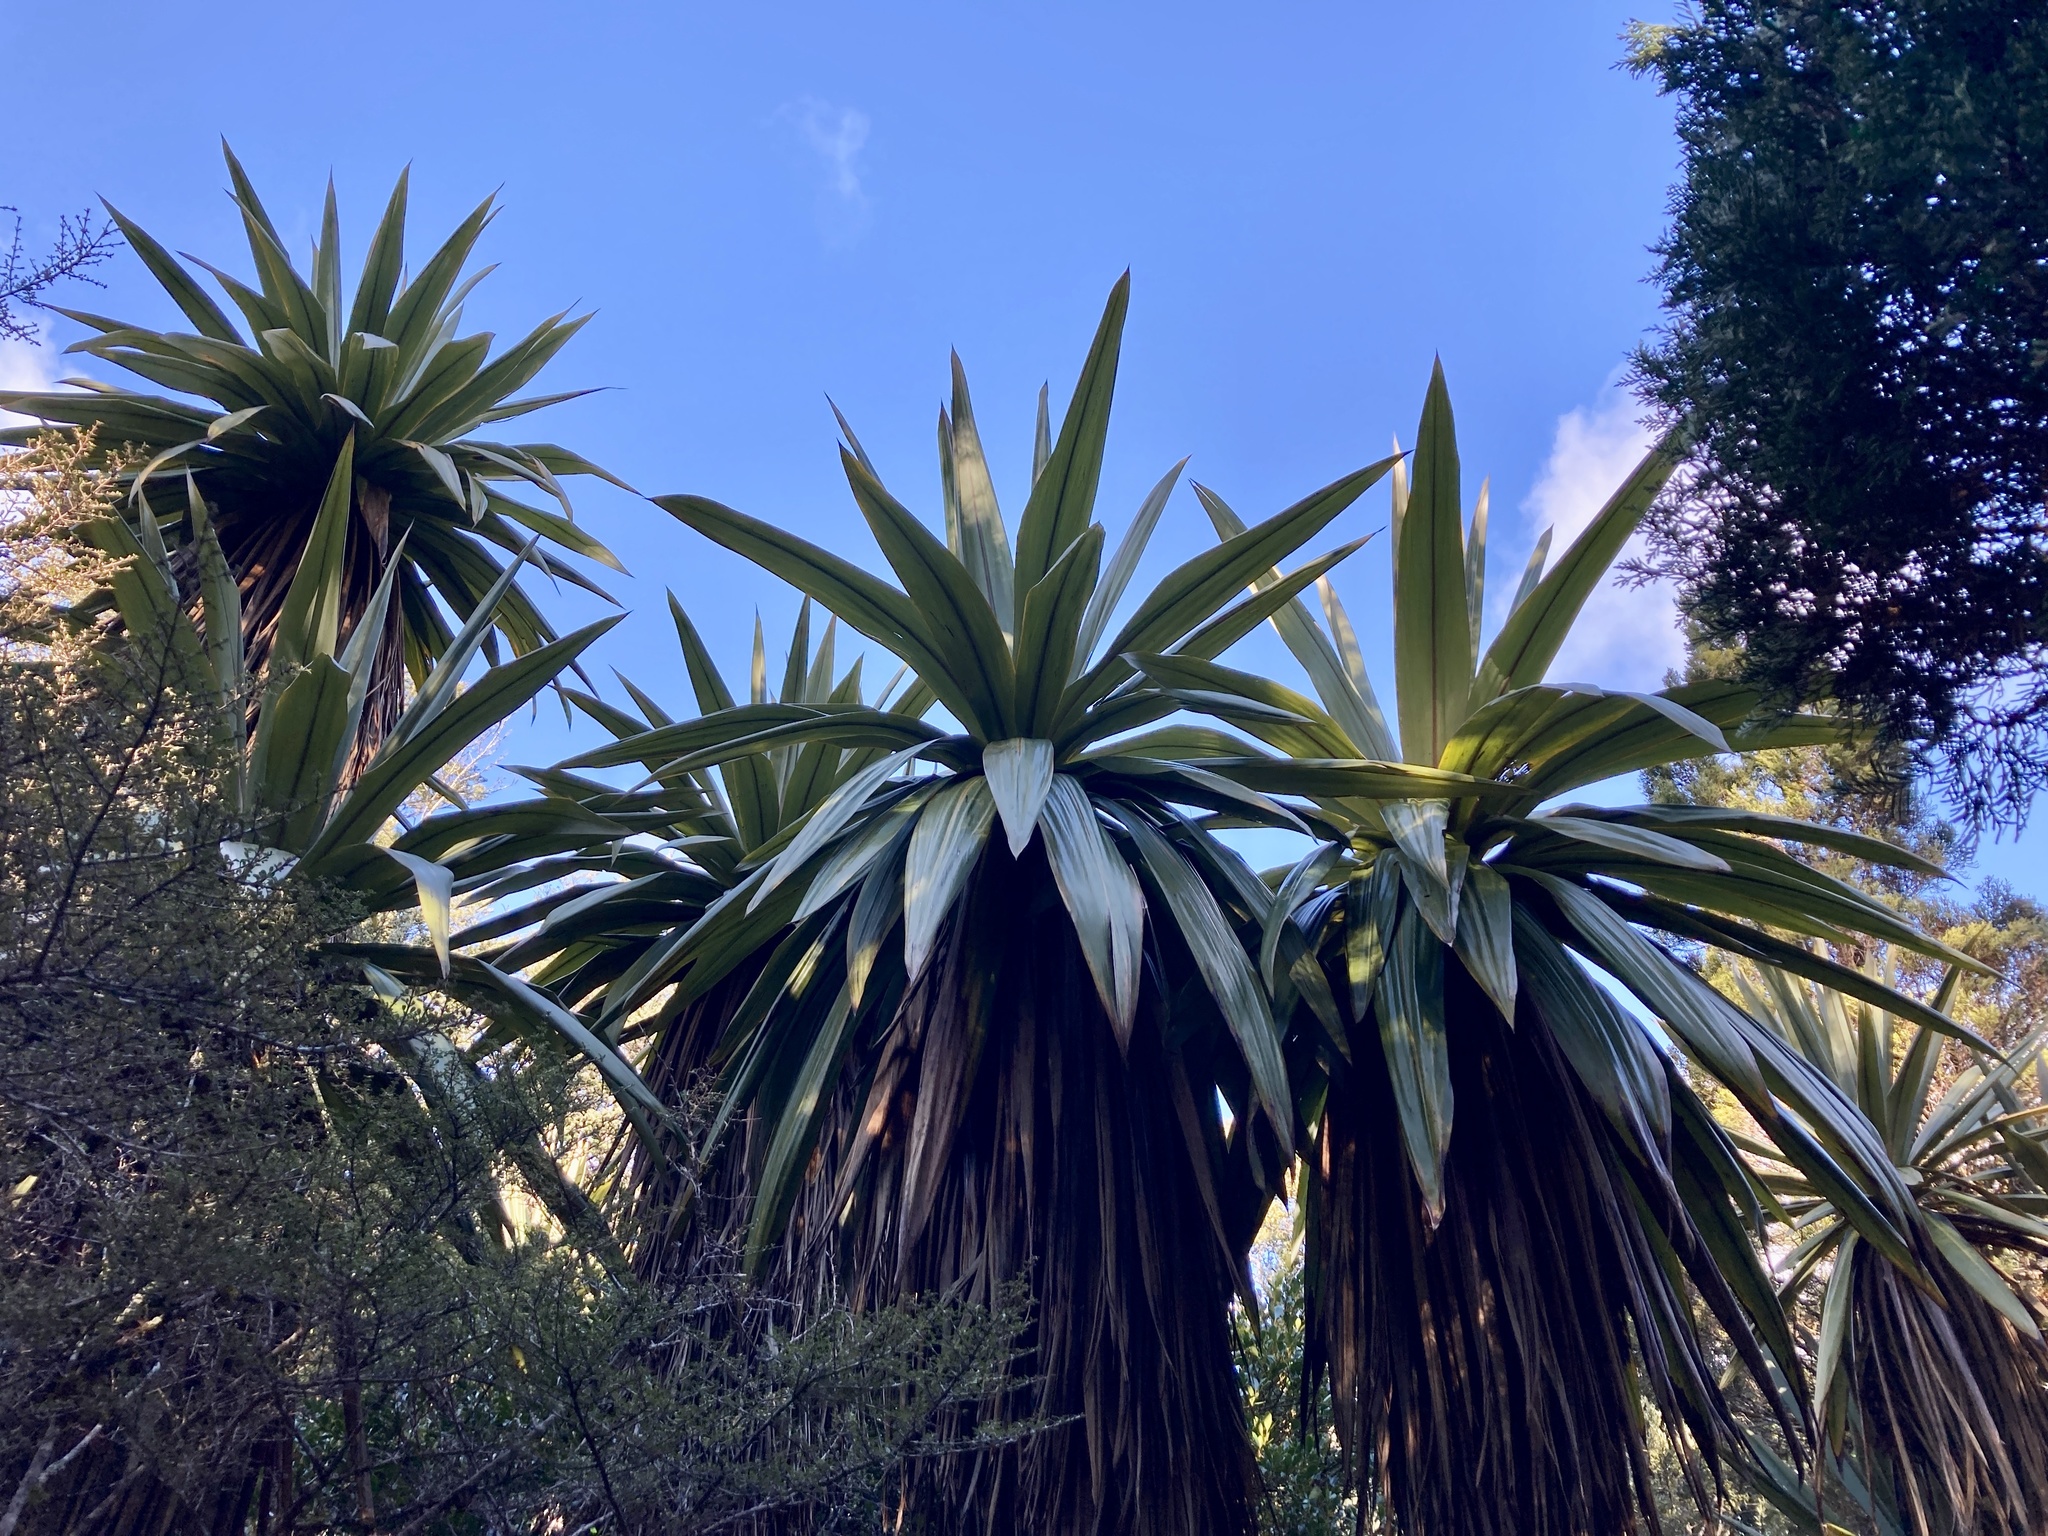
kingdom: Plantae
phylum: Tracheophyta
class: Liliopsida
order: Asparagales
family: Asparagaceae
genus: Cordyline
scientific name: Cordyline indivisa
